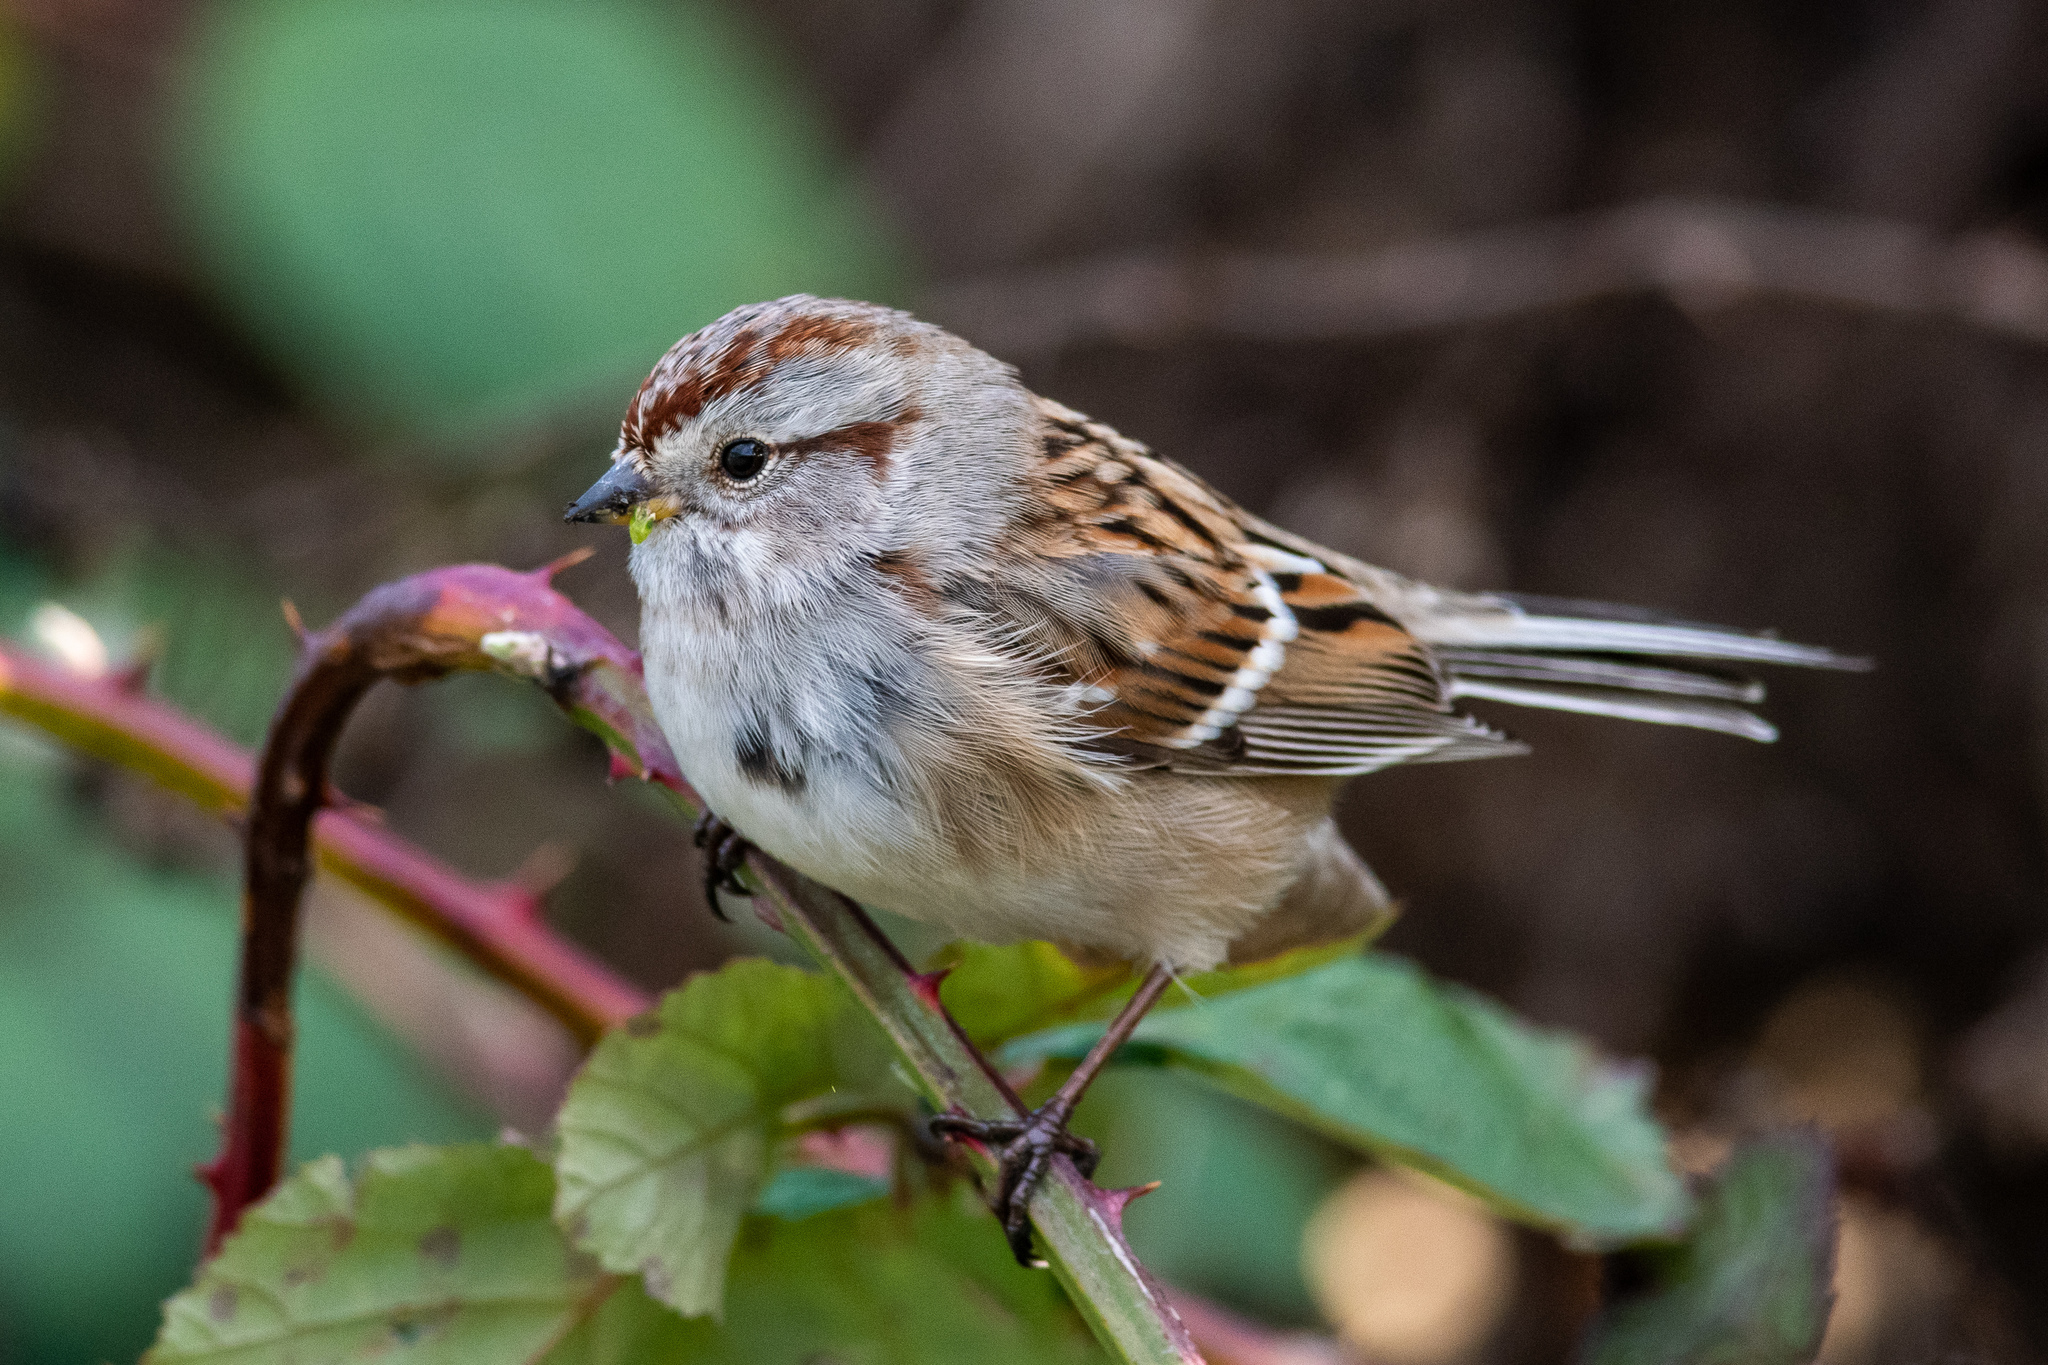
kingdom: Animalia
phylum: Chordata
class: Aves
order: Passeriformes
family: Passerellidae
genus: Spizelloides
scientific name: Spizelloides arborea
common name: American tree sparrow
